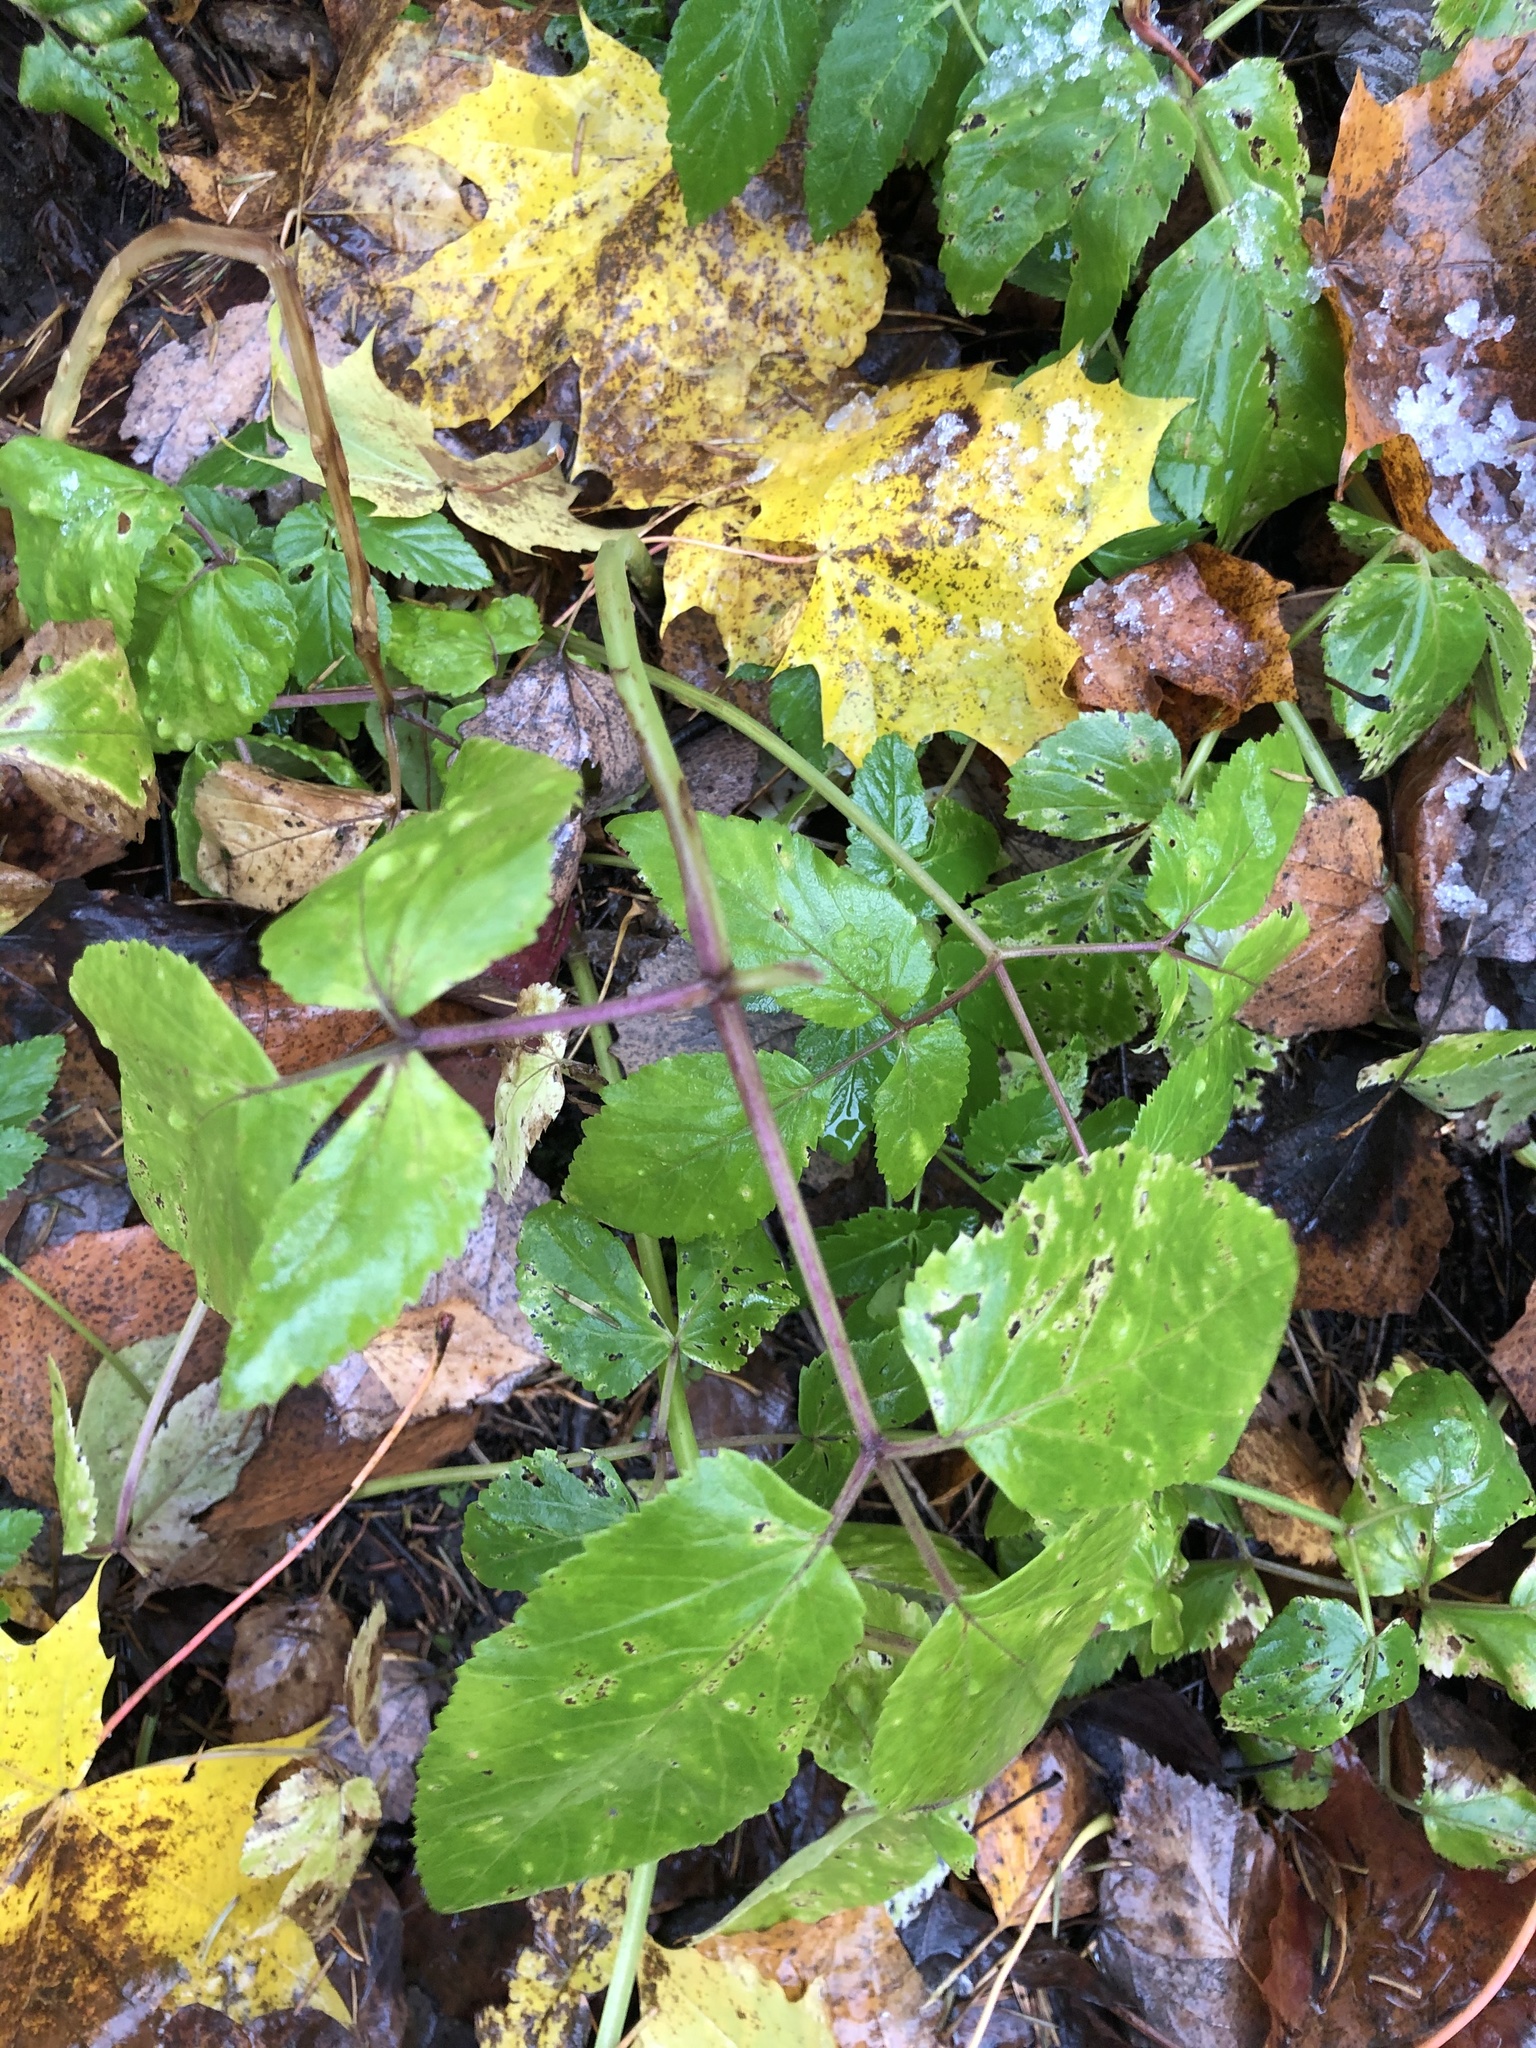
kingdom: Plantae
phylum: Tracheophyta
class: Magnoliopsida
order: Apiales
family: Apiaceae
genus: Aegopodium
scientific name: Aegopodium podagraria
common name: Ground-elder
